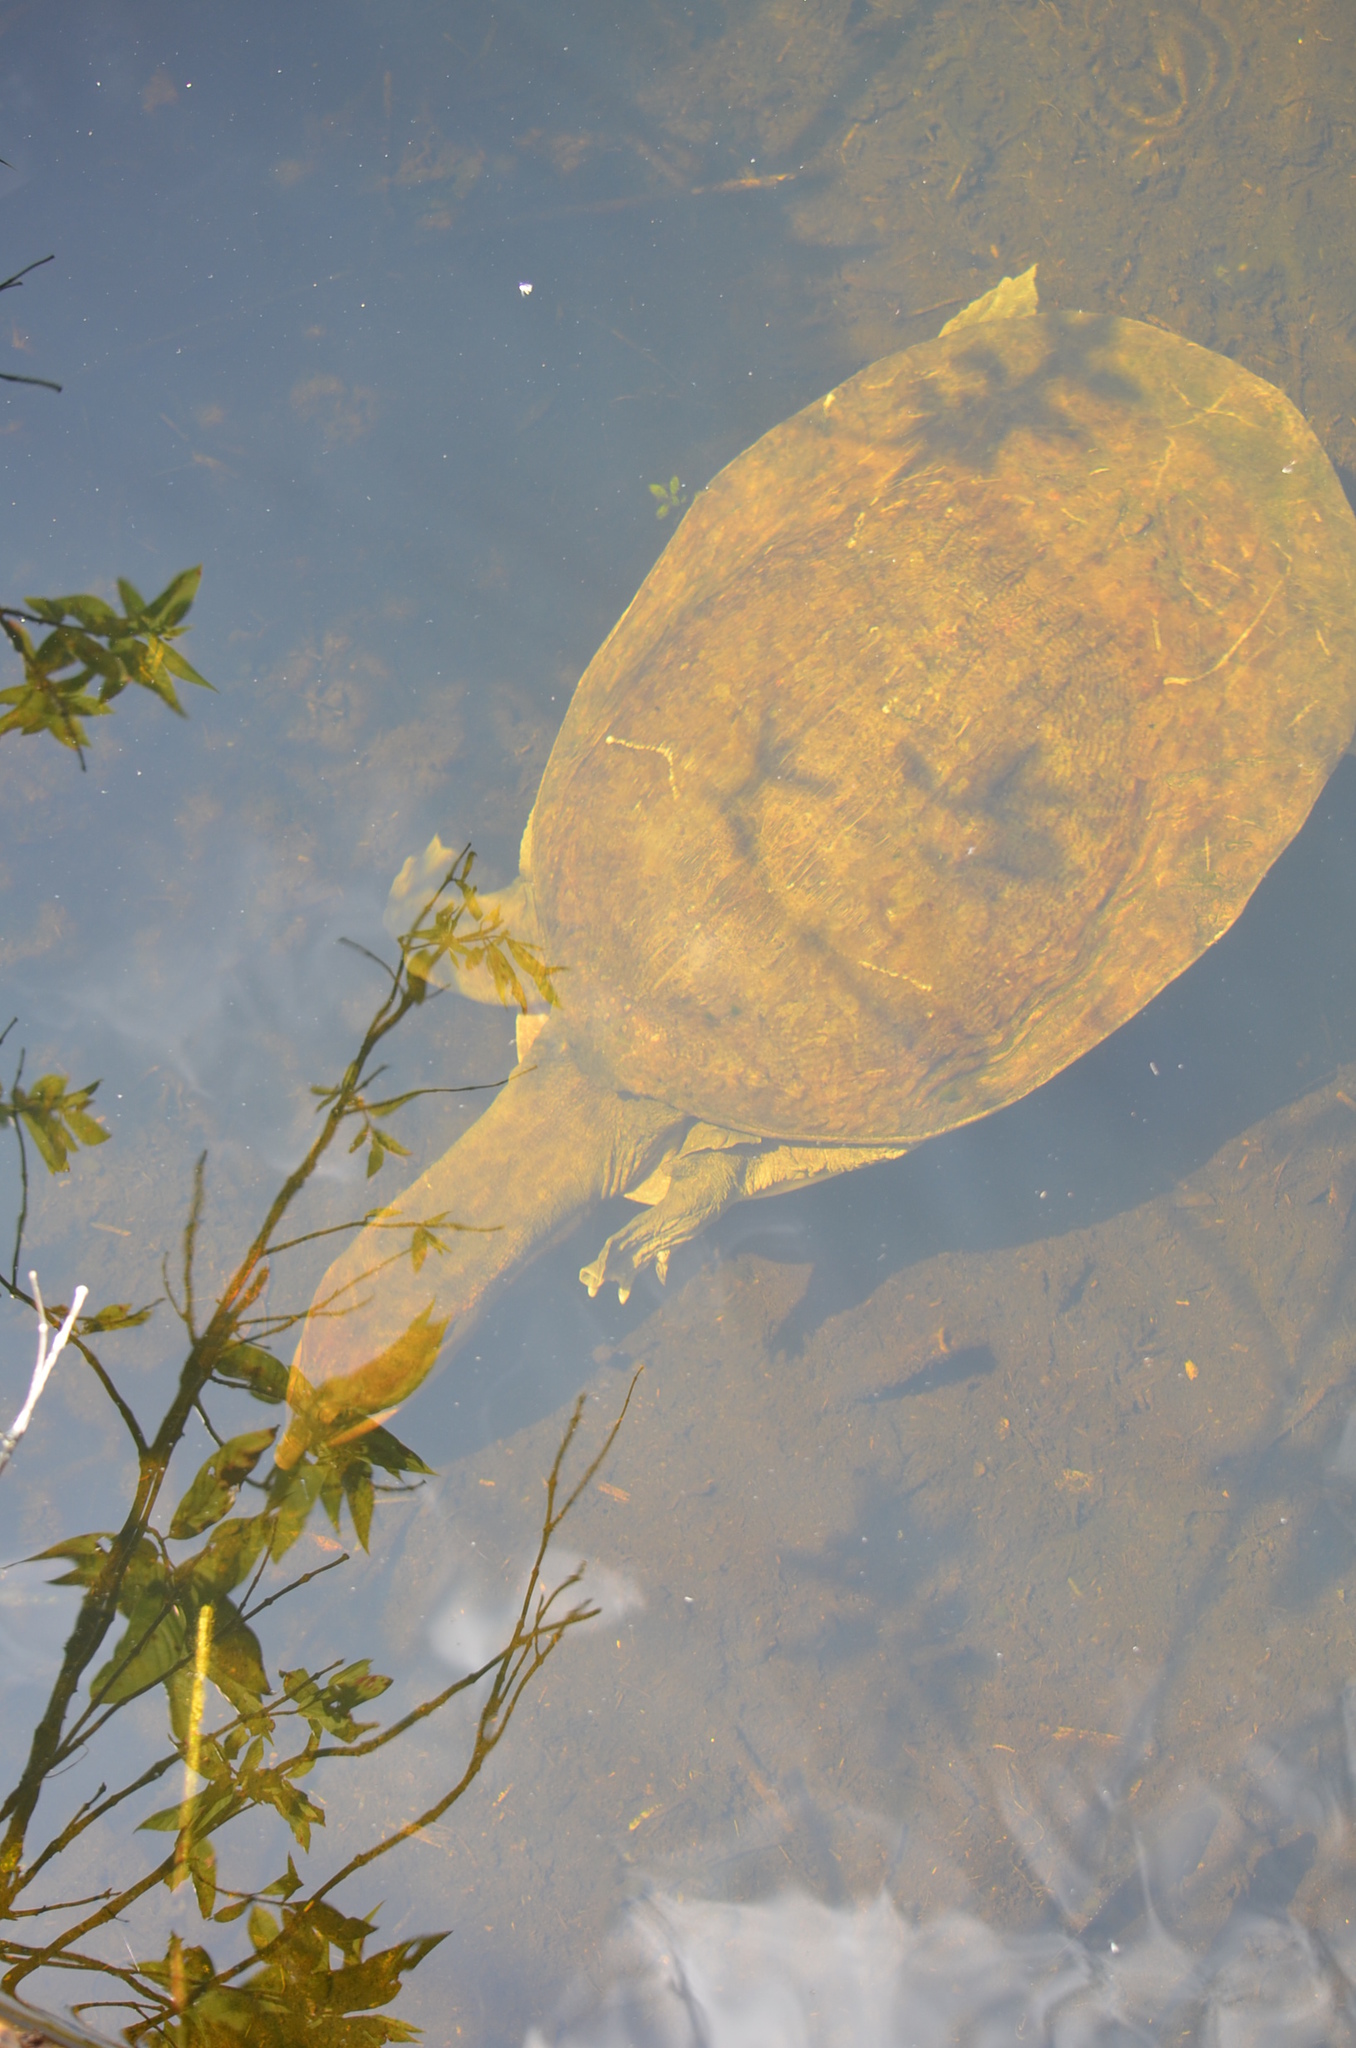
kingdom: Animalia
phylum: Chordata
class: Testudines
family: Trionychidae
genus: Apalone
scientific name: Apalone ferox
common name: Florida softshell turtle
